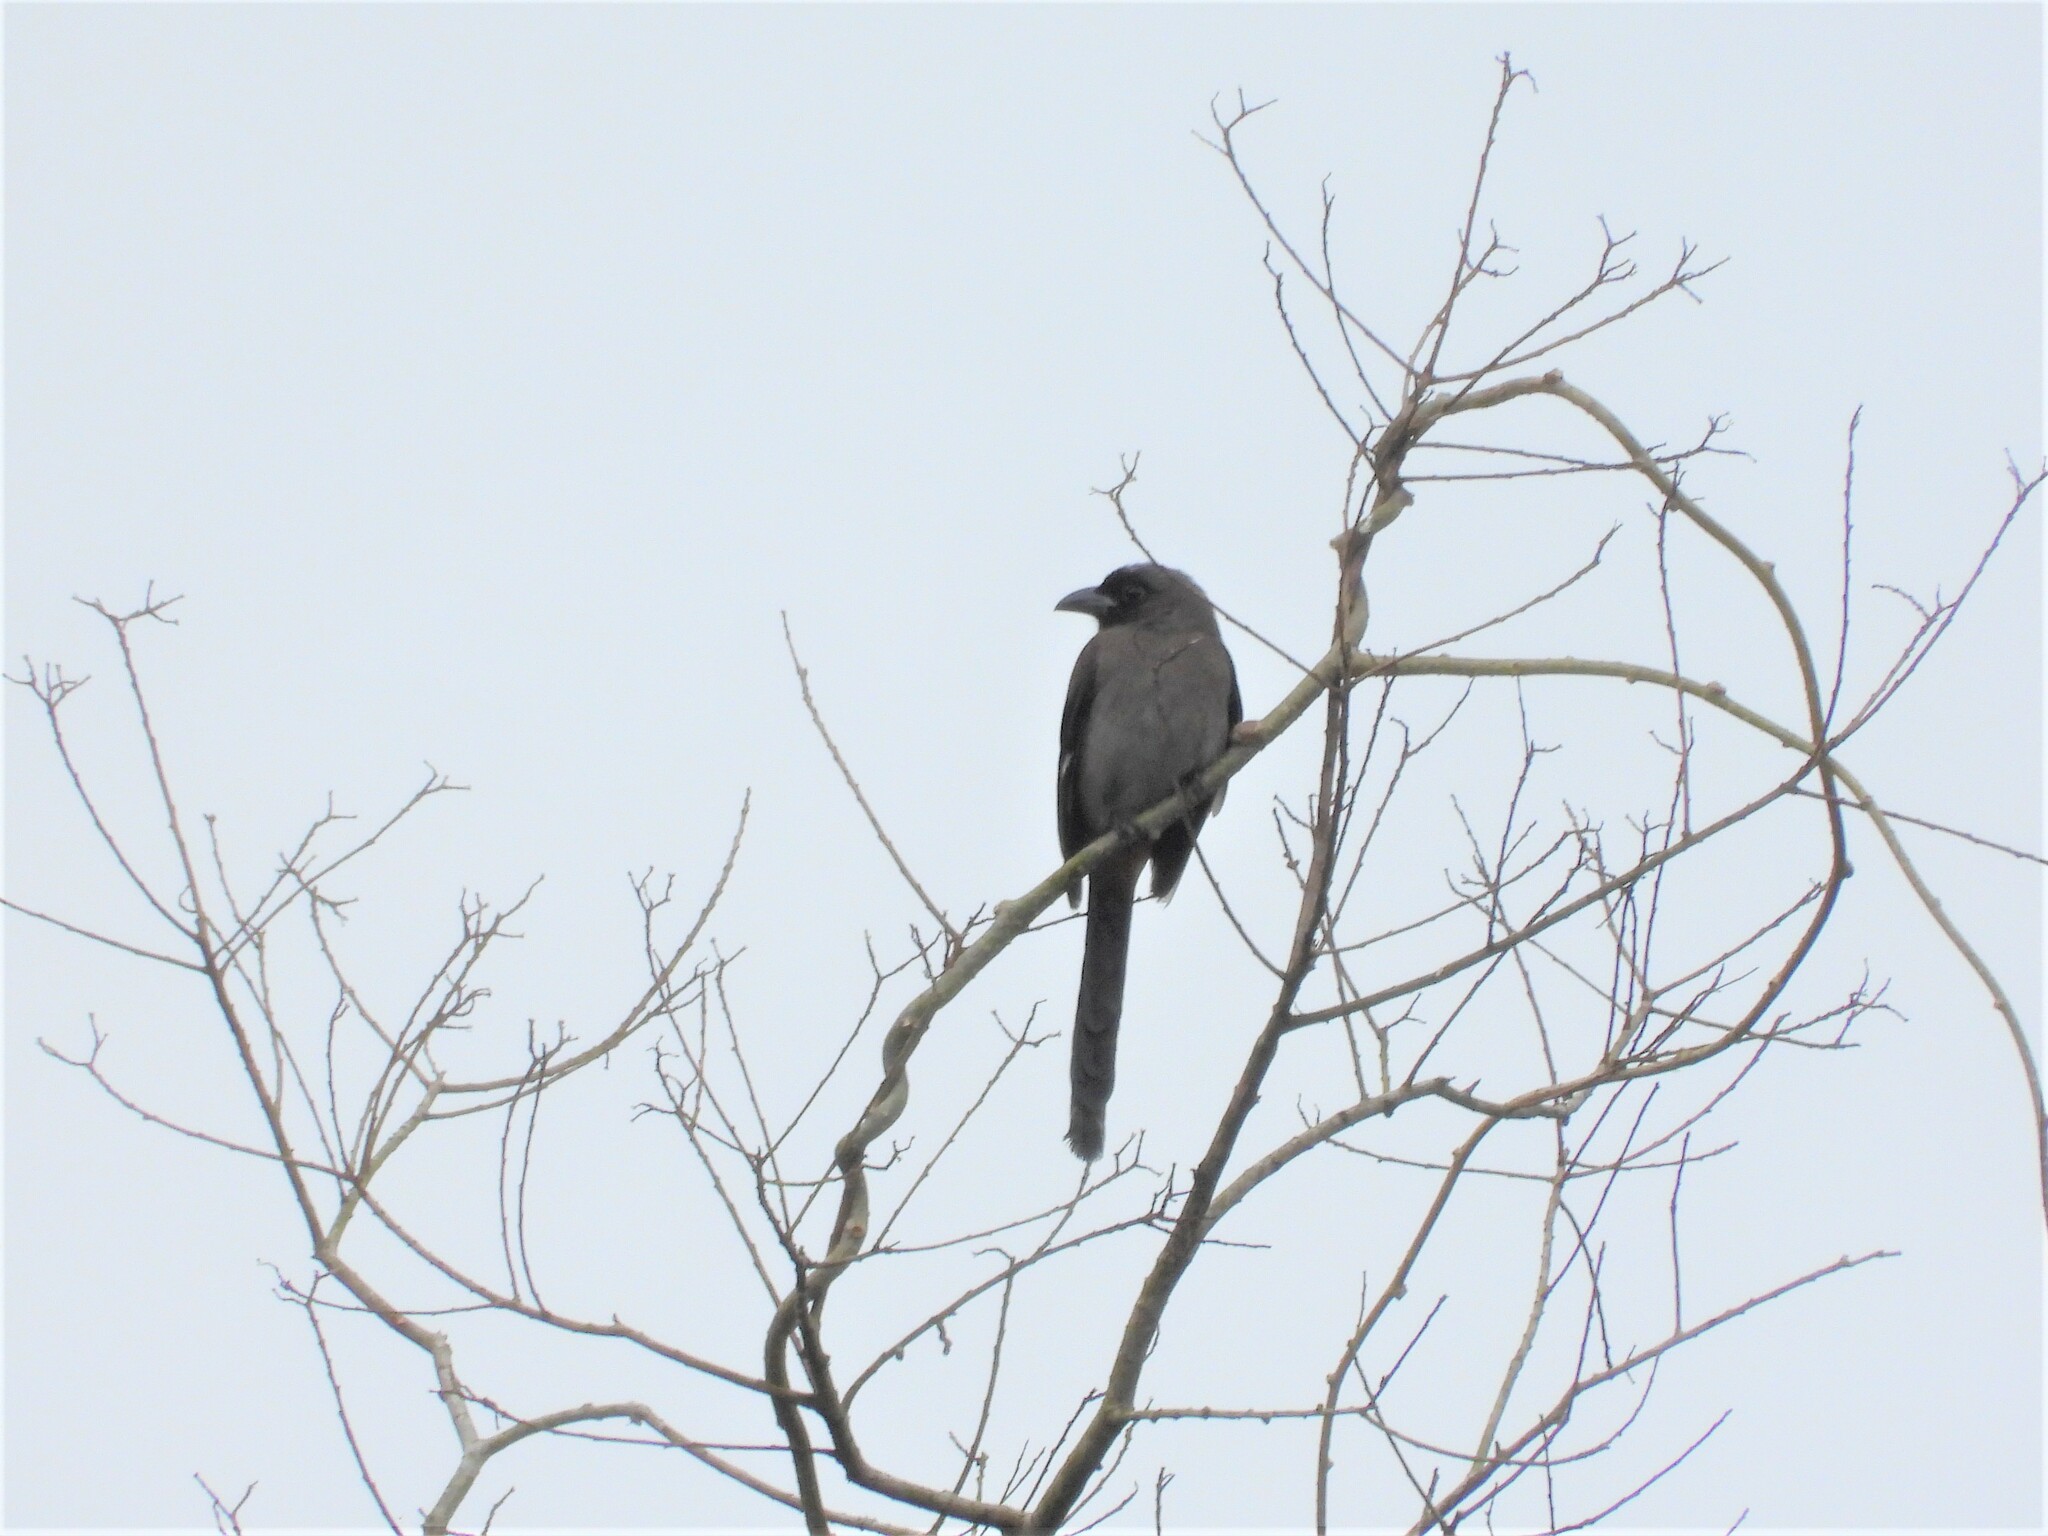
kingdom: Animalia
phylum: Chordata
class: Aves
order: Passeriformes
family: Corvidae
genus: Dendrocitta
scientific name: Dendrocitta formosae
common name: Grey treepie
